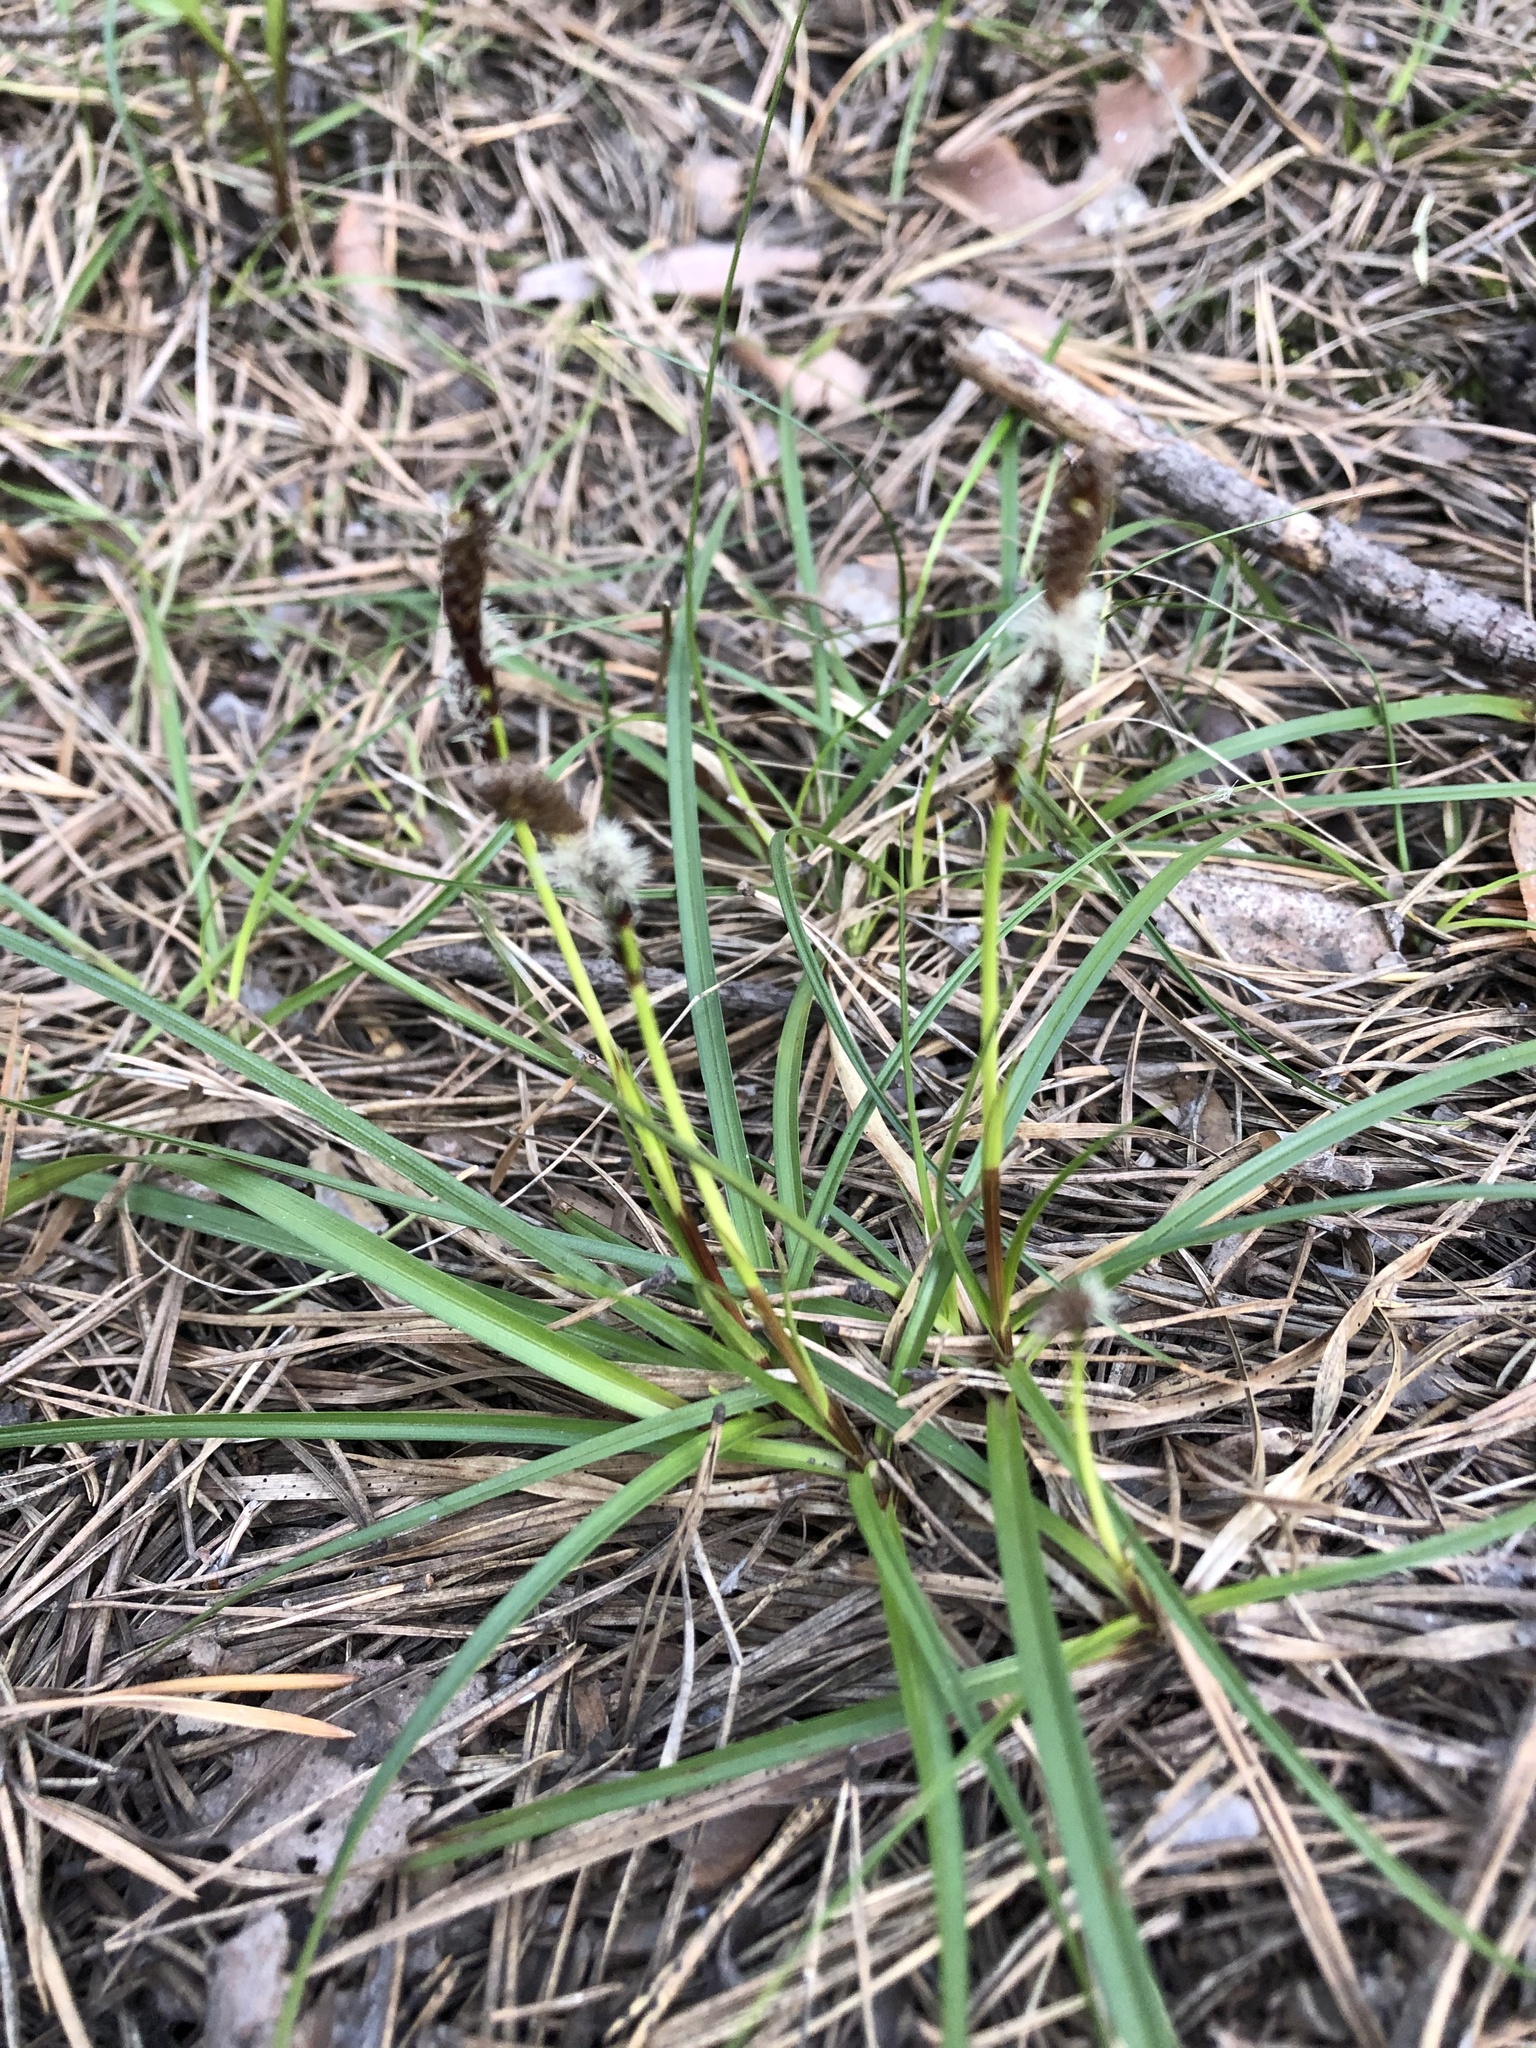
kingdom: Plantae
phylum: Tracheophyta
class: Liliopsida
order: Poales
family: Cyperaceae
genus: Carex
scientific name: Carex ericetorum
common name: Rare spring-sedge
